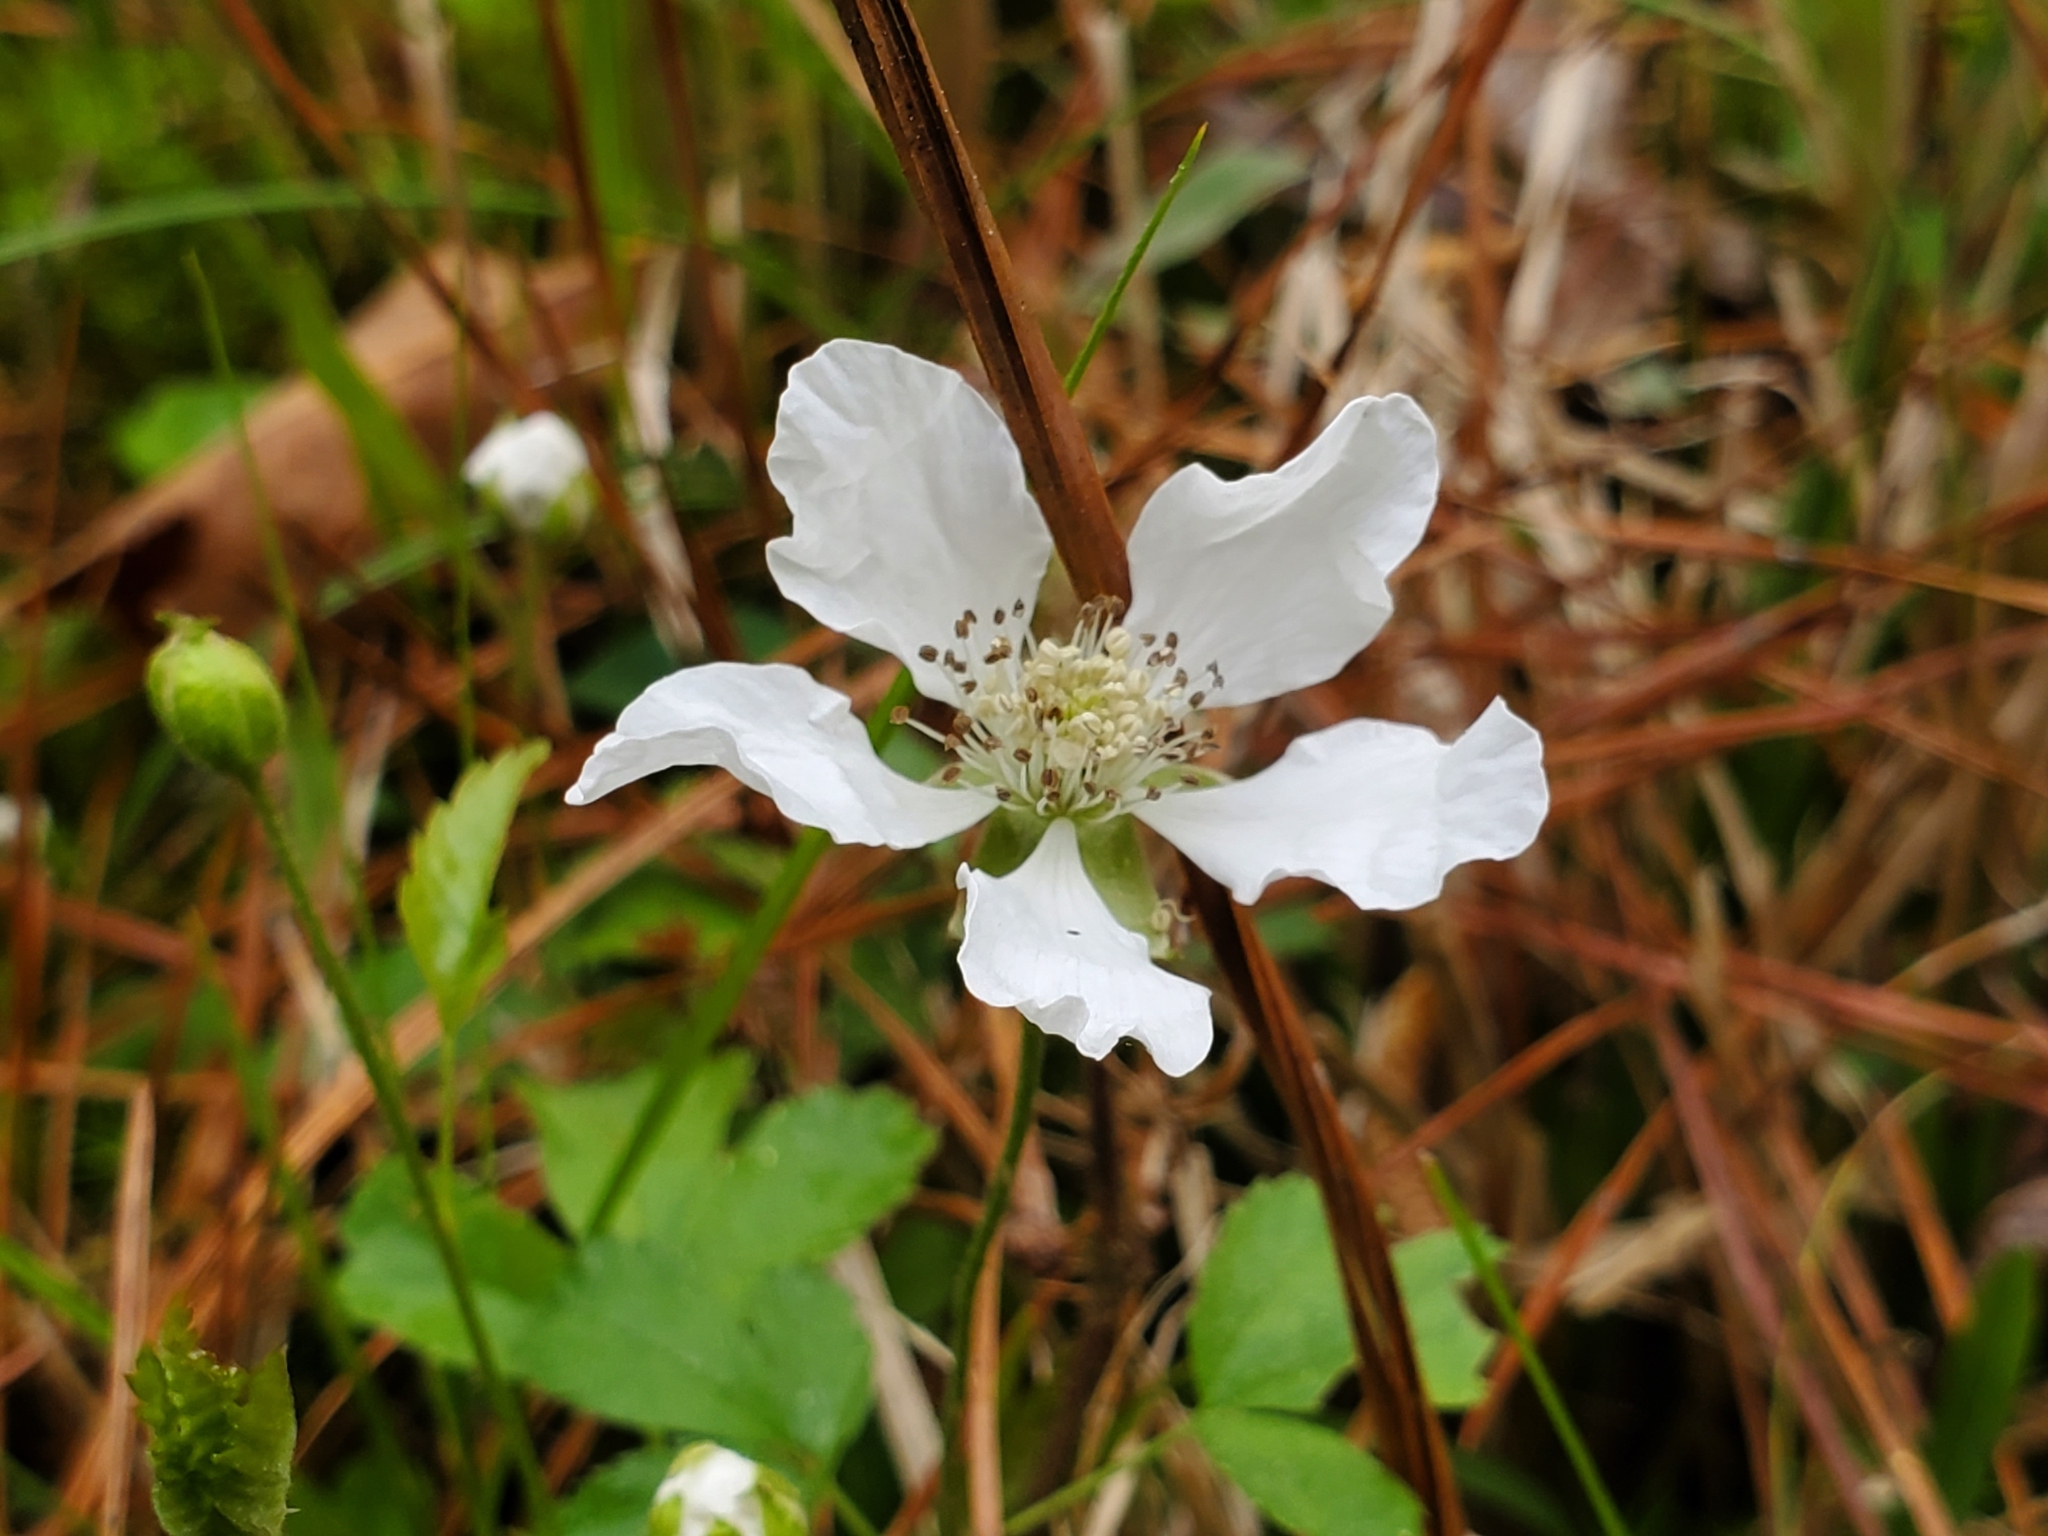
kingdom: Plantae
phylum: Tracheophyta
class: Magnoliopsida
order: Rosales
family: Rosaceae
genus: Rubus
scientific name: Rubus trivialis
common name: Southern dewberry
